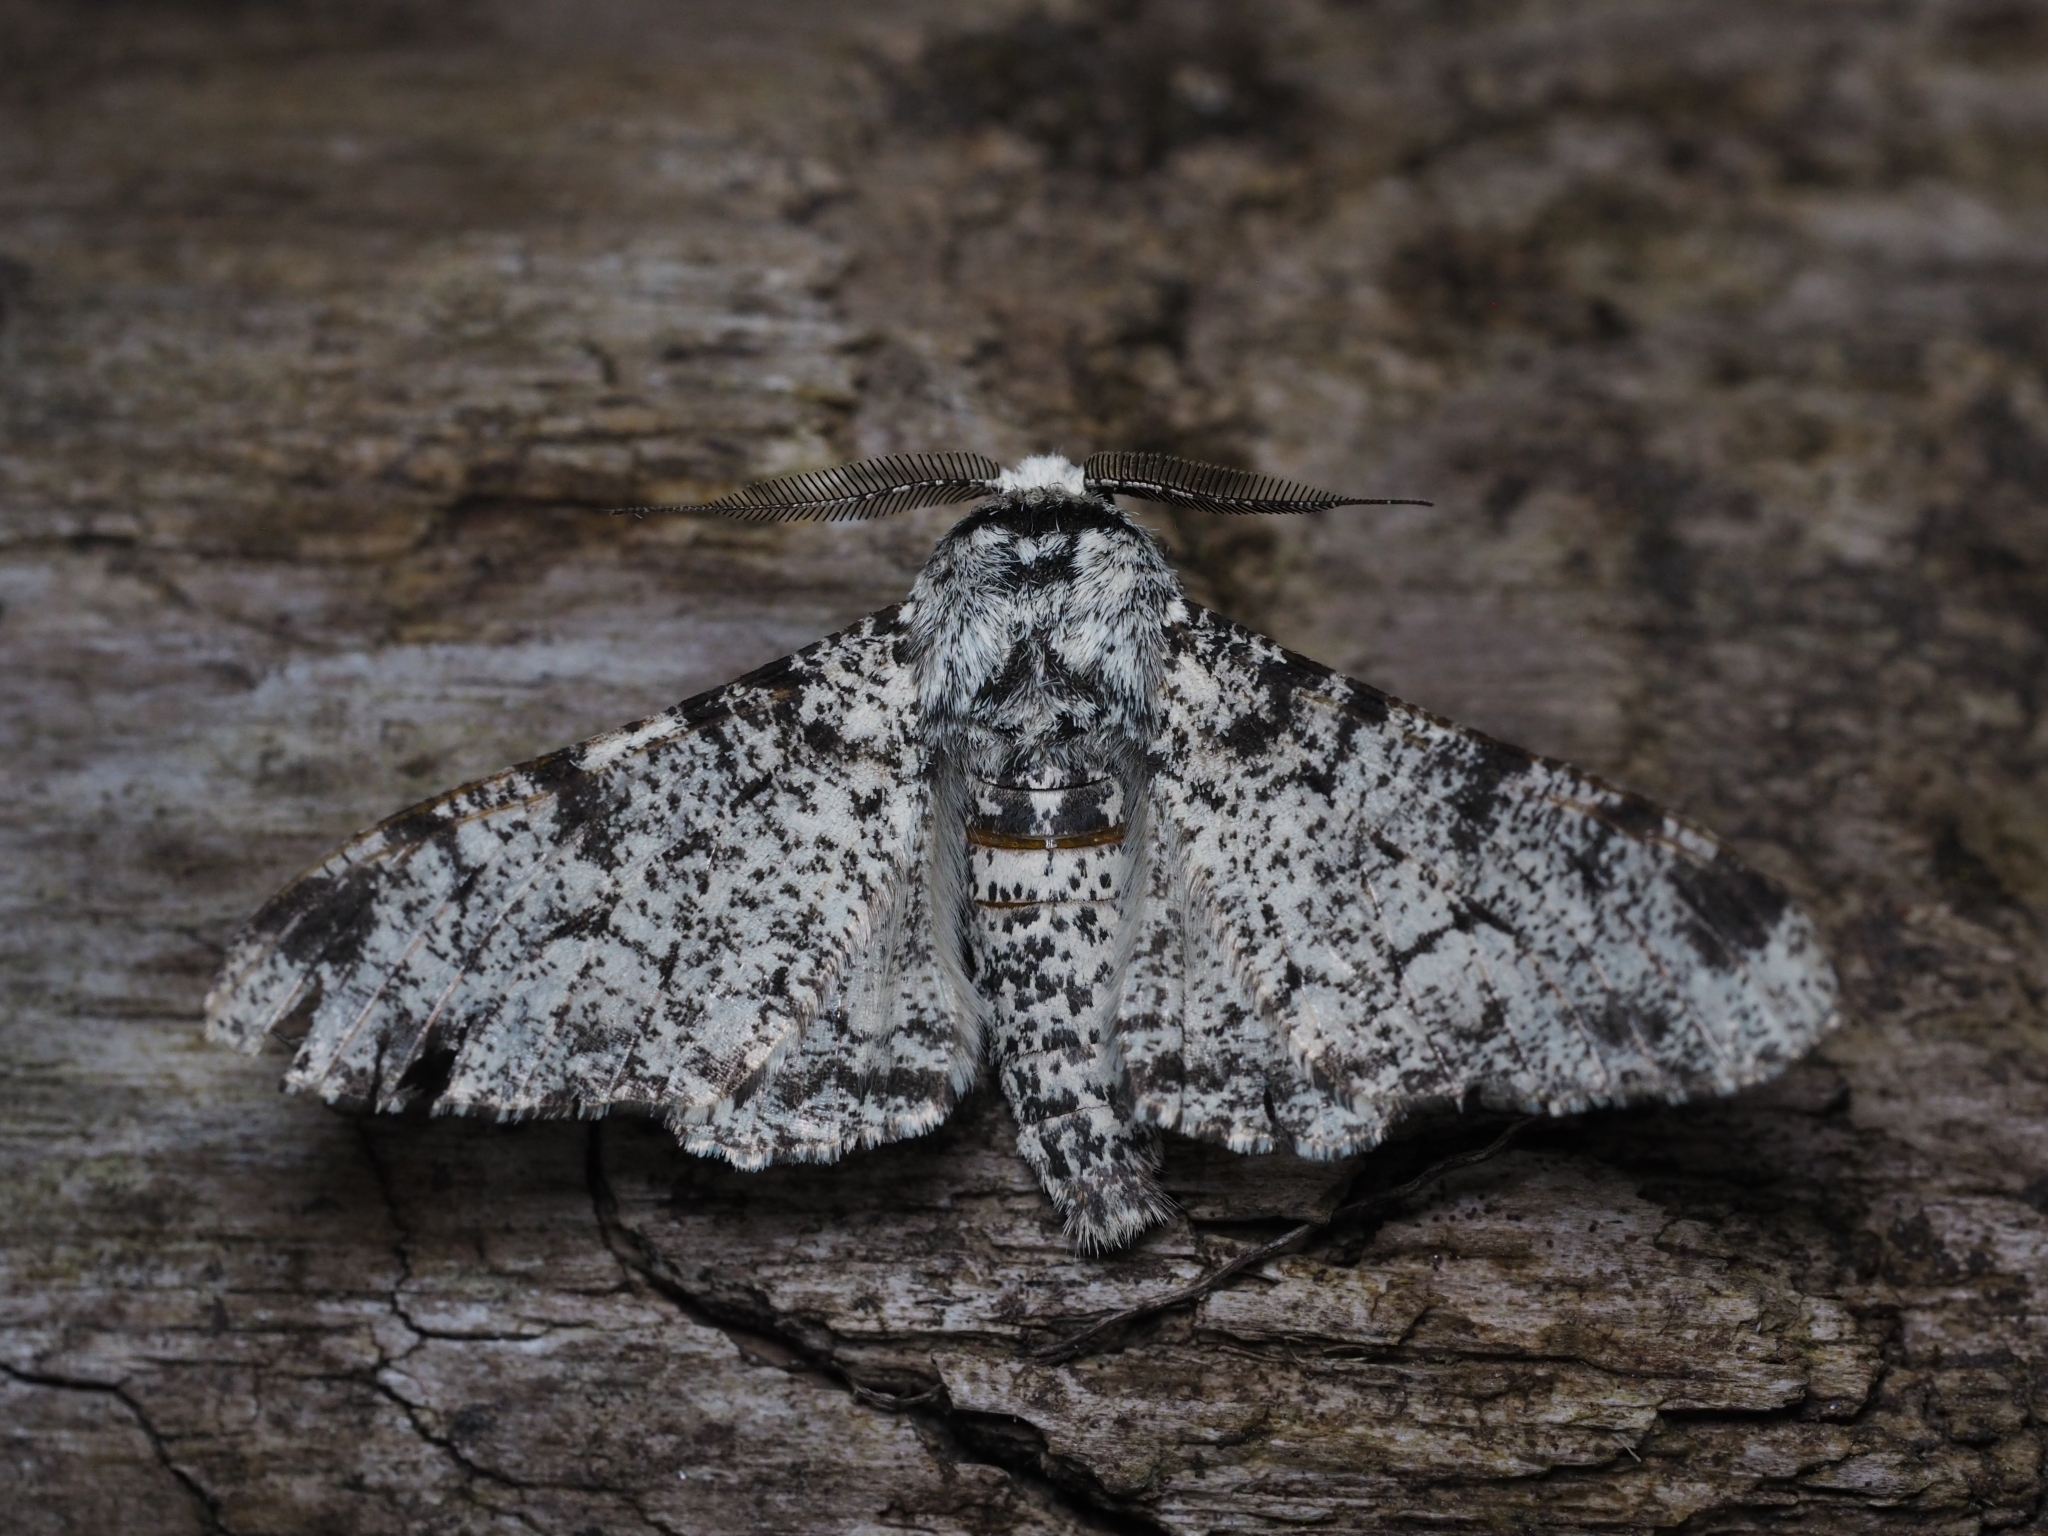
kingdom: Animalia
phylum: Arthropoda
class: Insecta
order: Lepidoptera
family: Geometridae
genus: Biston
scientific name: Biston betularia
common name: Peppered moth
